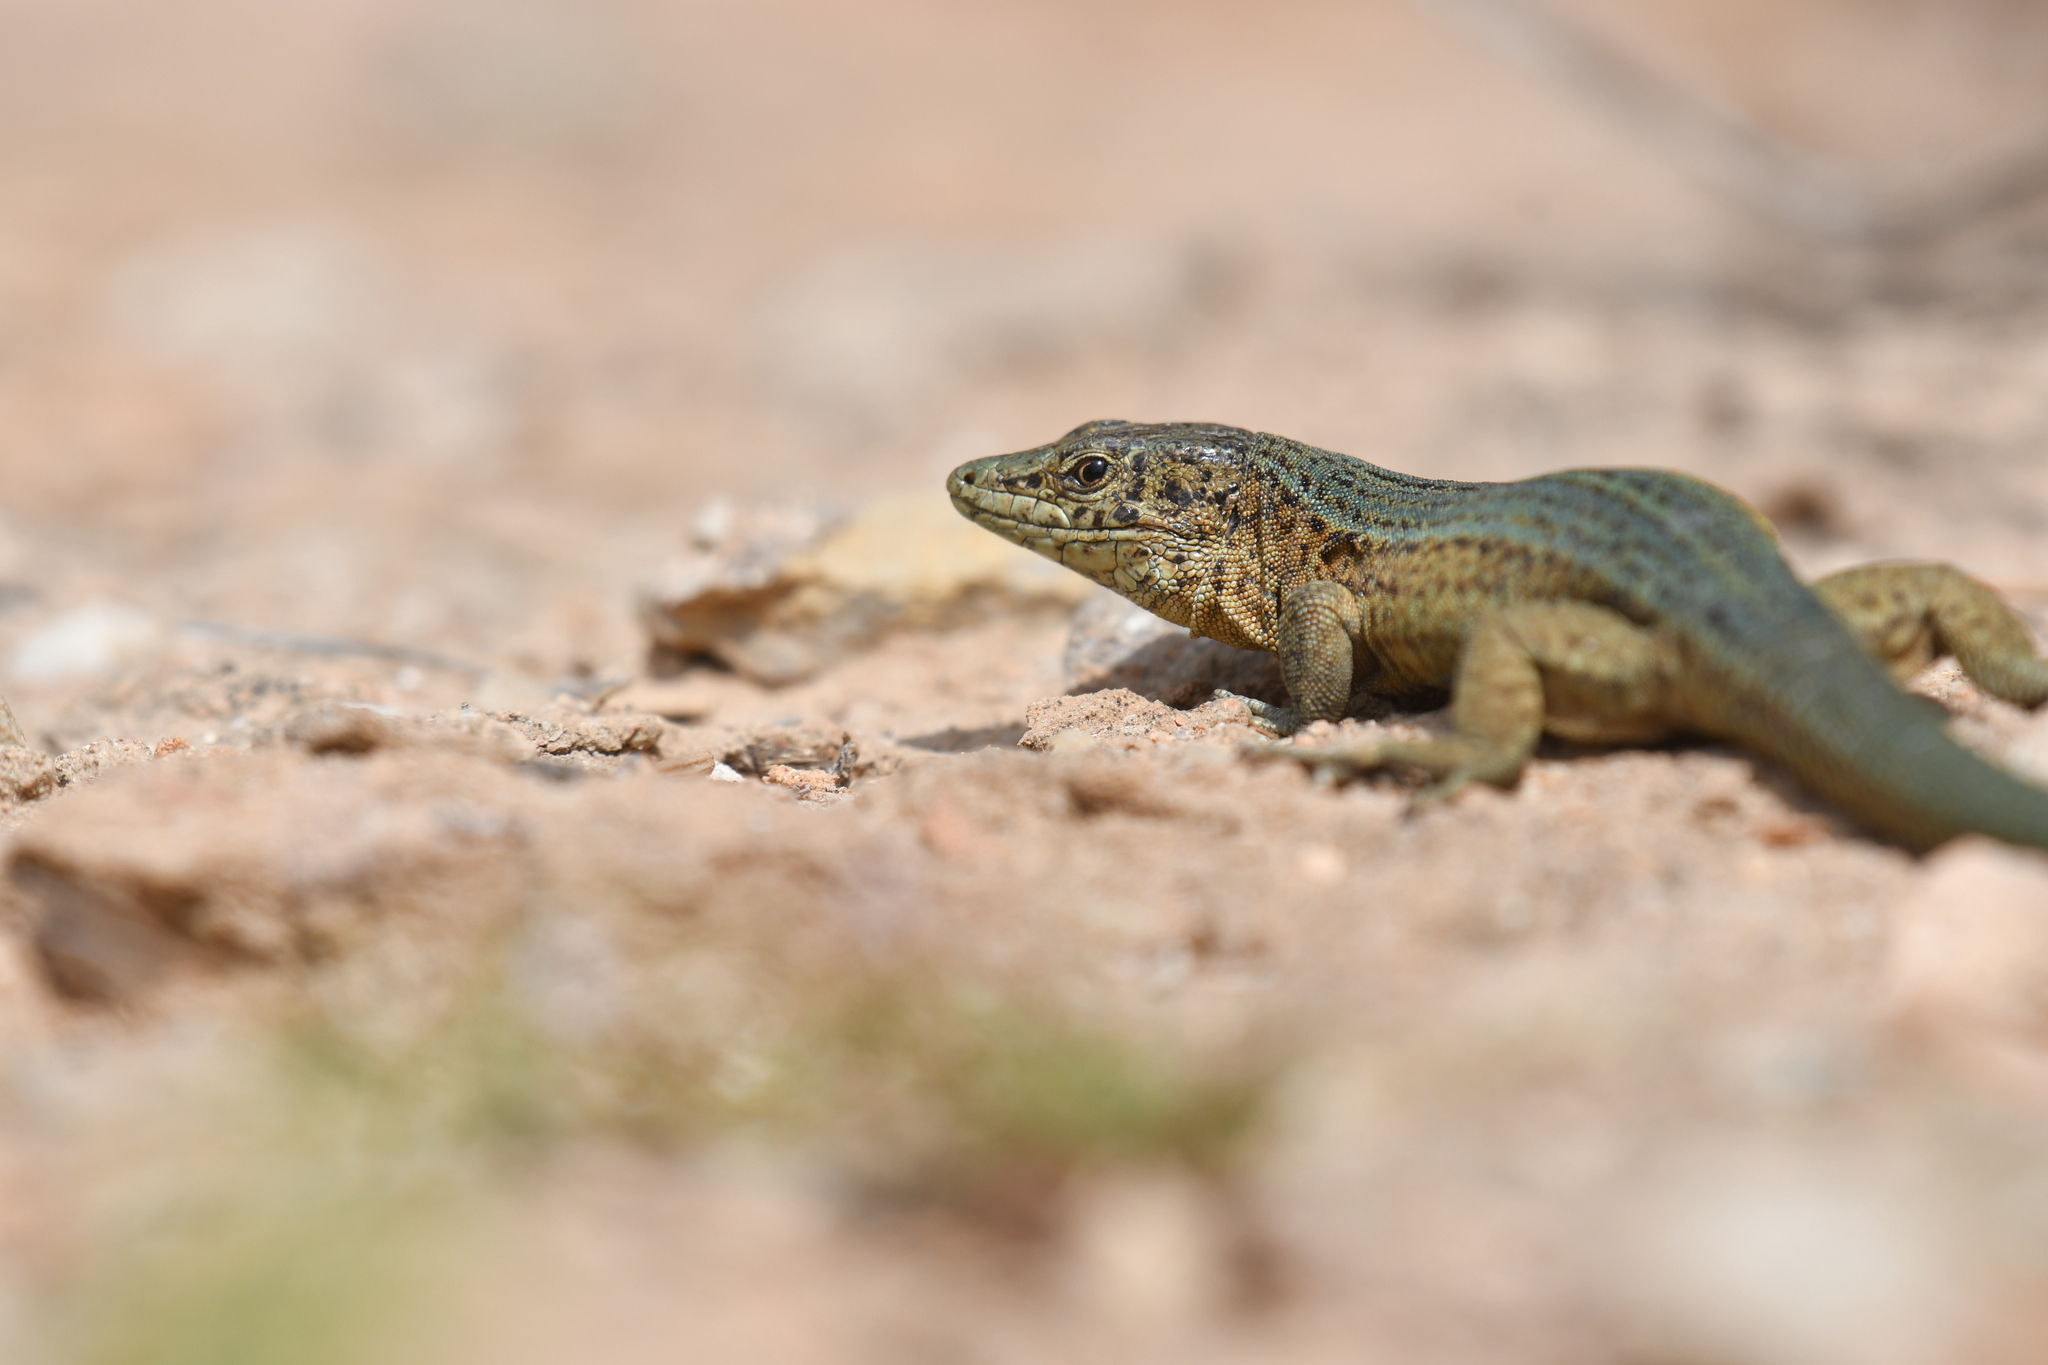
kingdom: Animalia
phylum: Chordata
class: Squamata
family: Lacertidae
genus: Podarcis
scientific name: Podarcis lilfordi
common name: Belearic lizard
